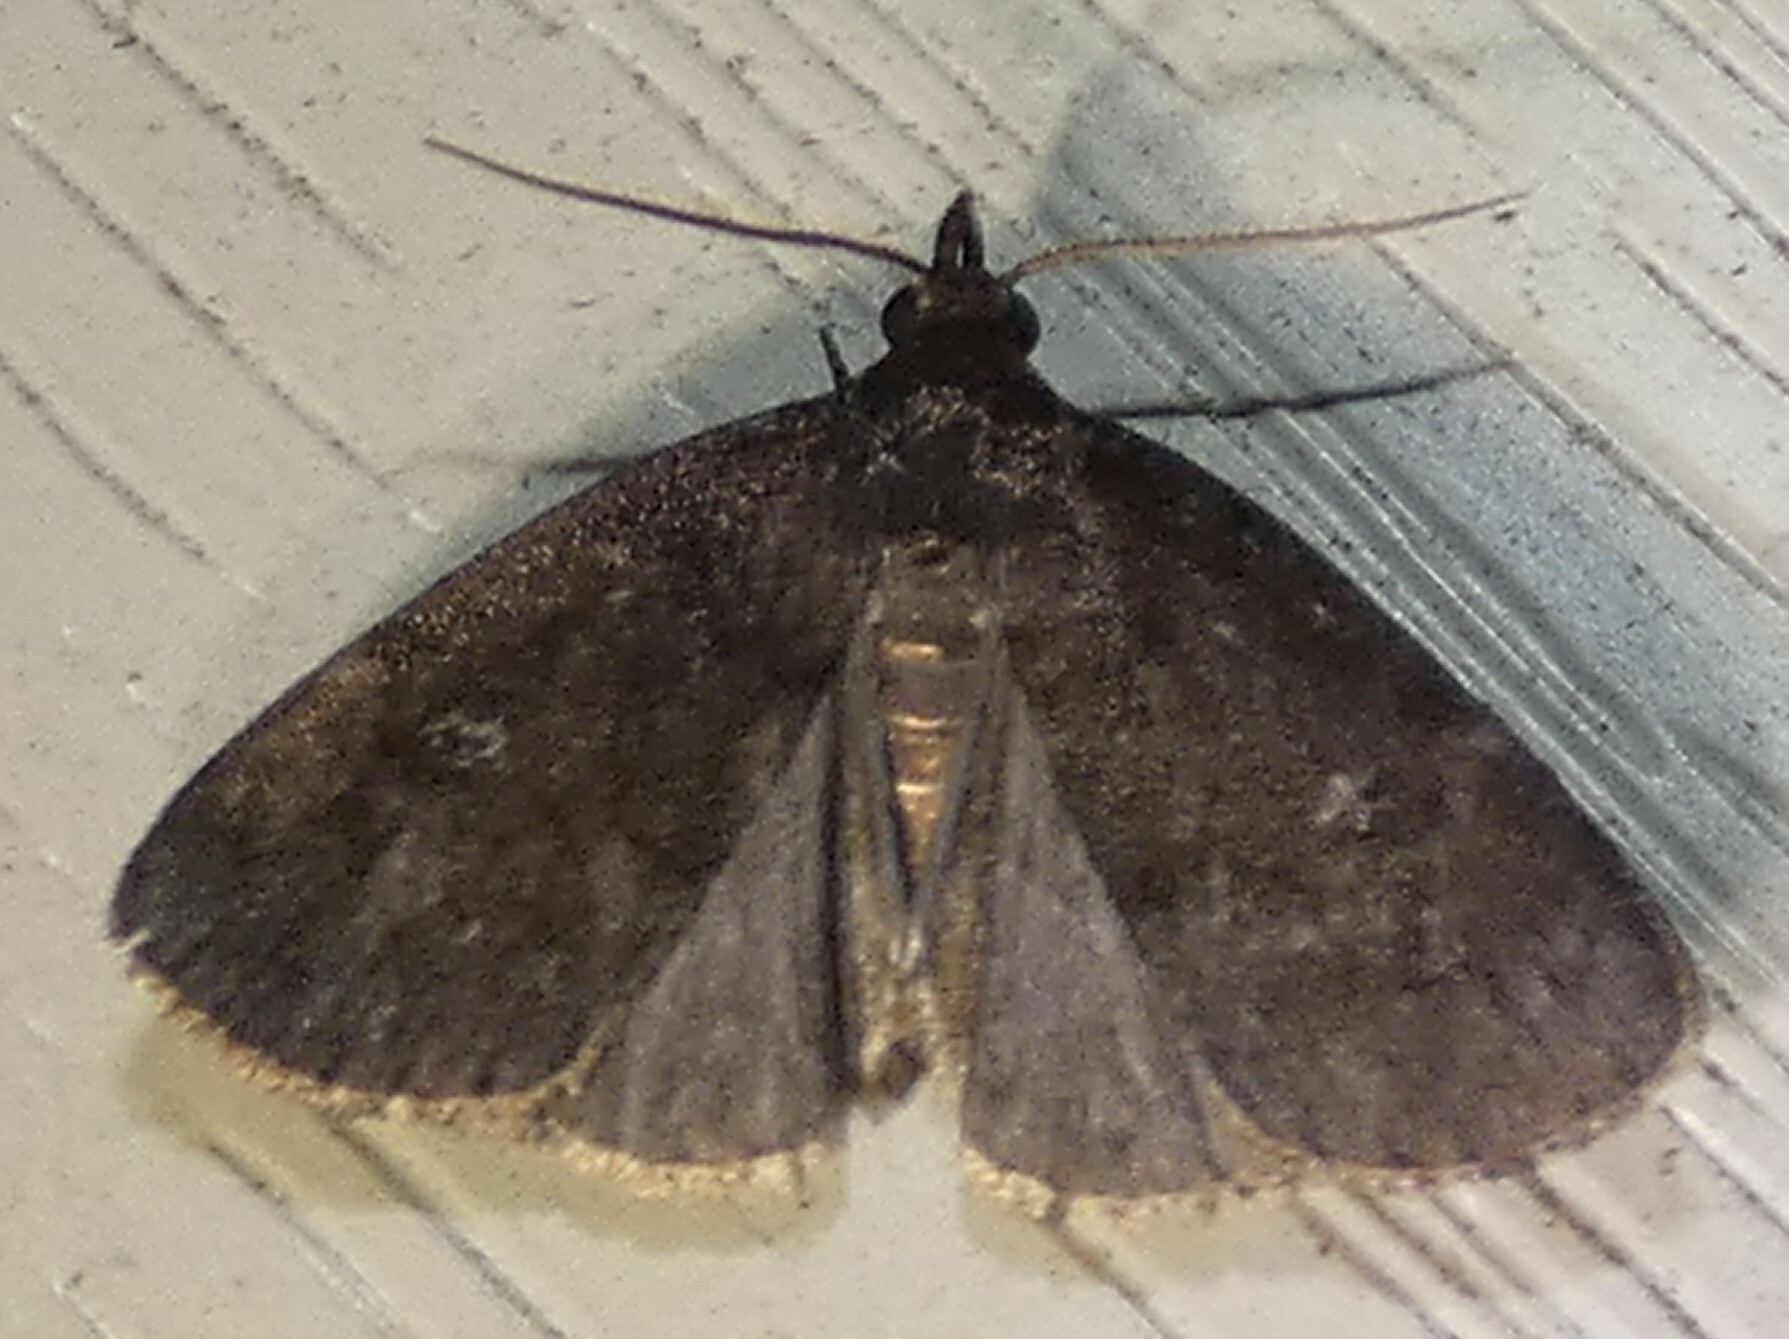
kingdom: Animalia
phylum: Arthropoda
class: Insecta
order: Lepidoptera
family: Erebidae
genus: Idia
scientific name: Idia rotundalis
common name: Rotund idia moth
